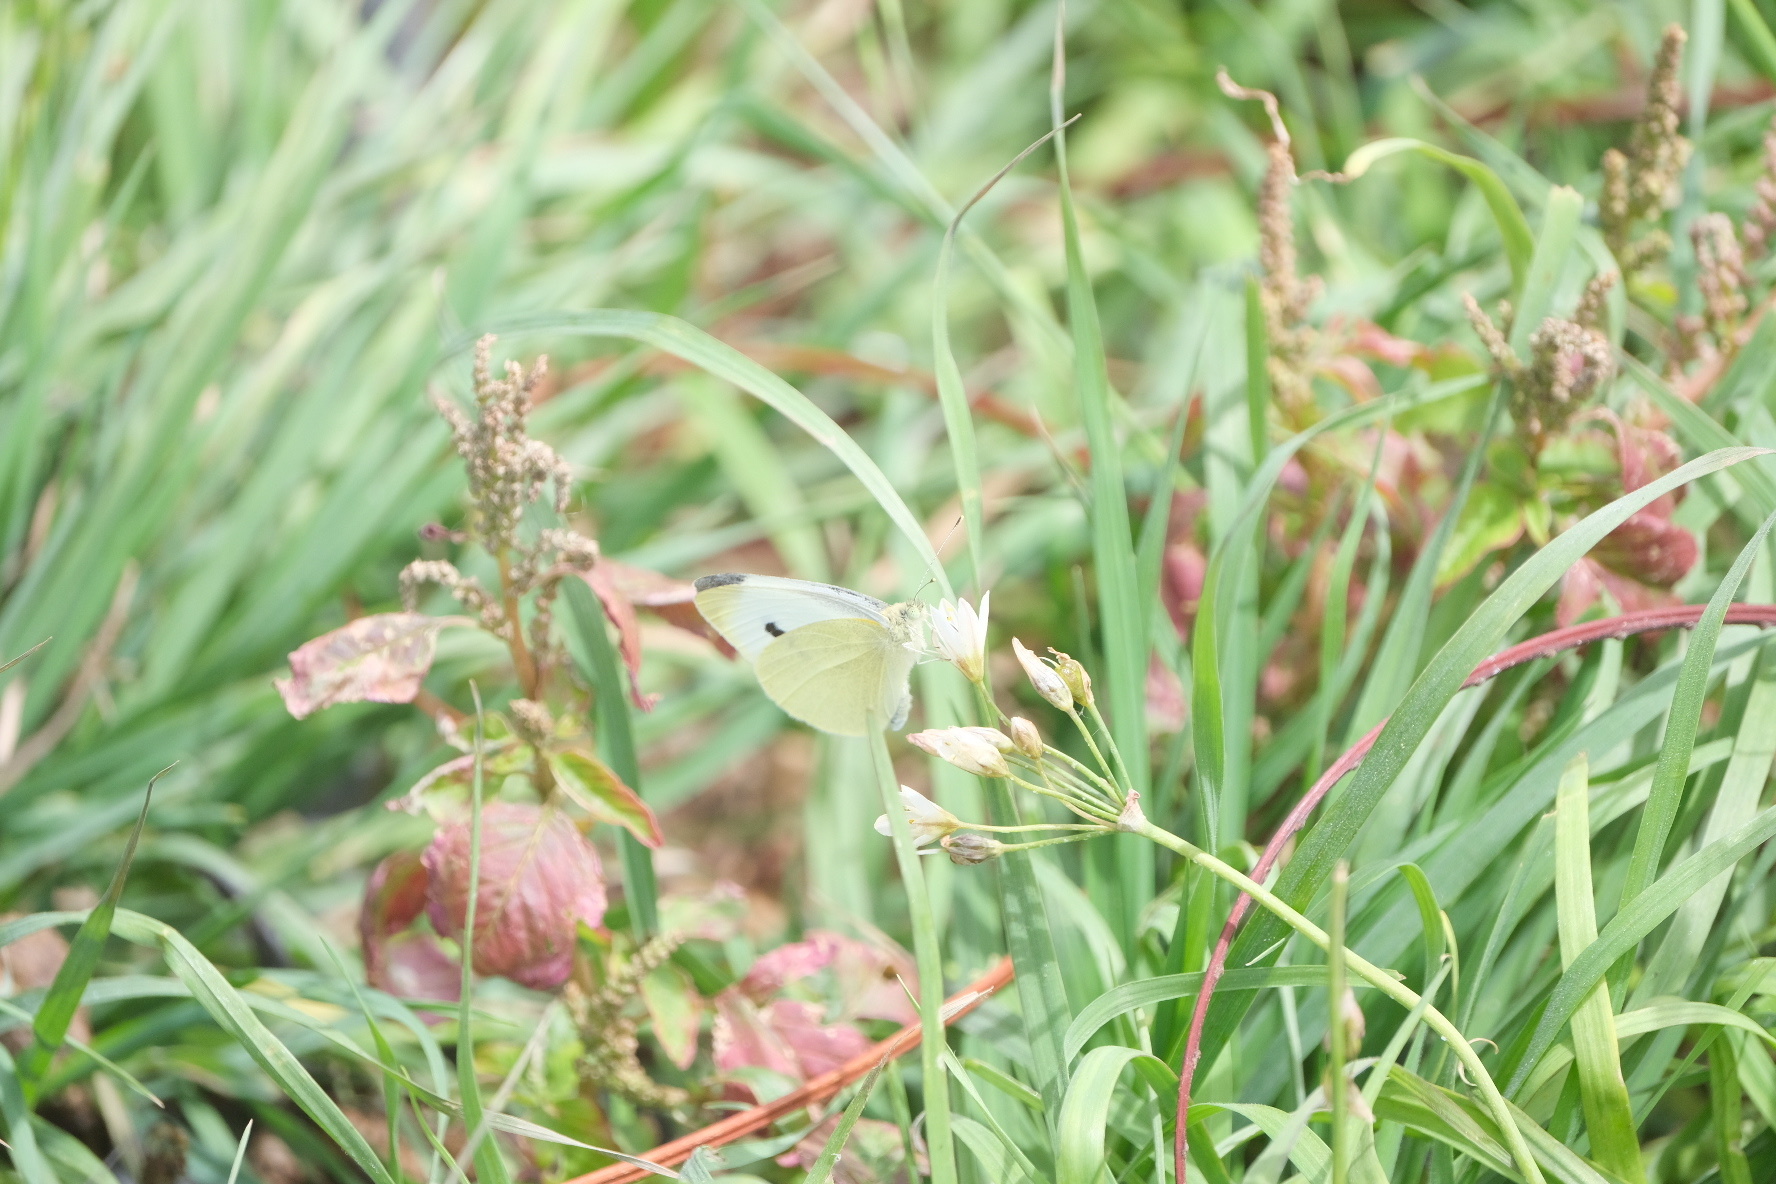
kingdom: Animalia
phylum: Arthropoda
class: Insecta
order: Lepidoptera
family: Pieridae
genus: Pieris
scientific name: Pieris rapae
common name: Small white
